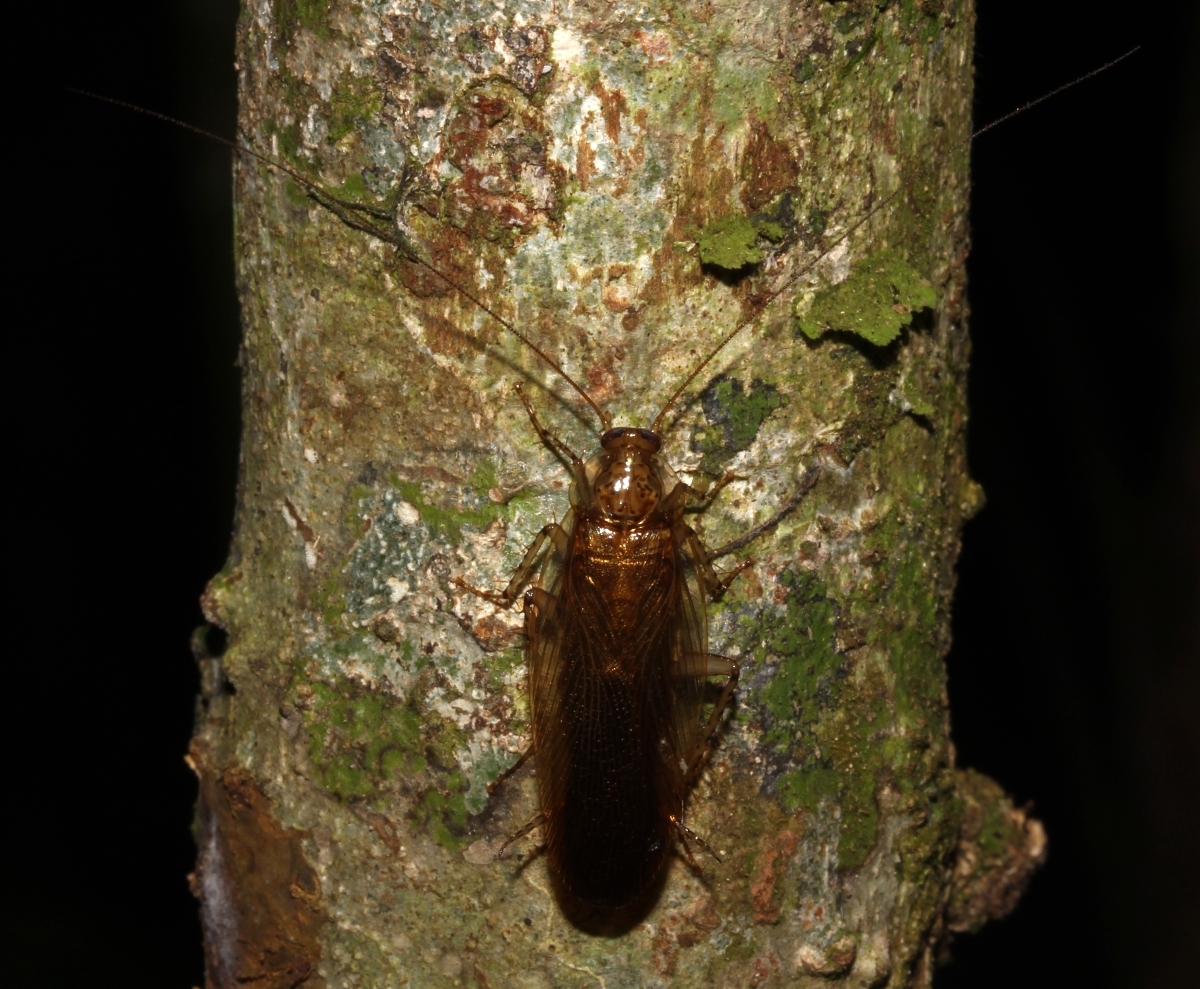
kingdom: Animalia
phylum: Arthropoda
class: Insecta
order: Blattodea
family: Pseudophyllodromiidae
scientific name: Pseudophyllodromiidae
